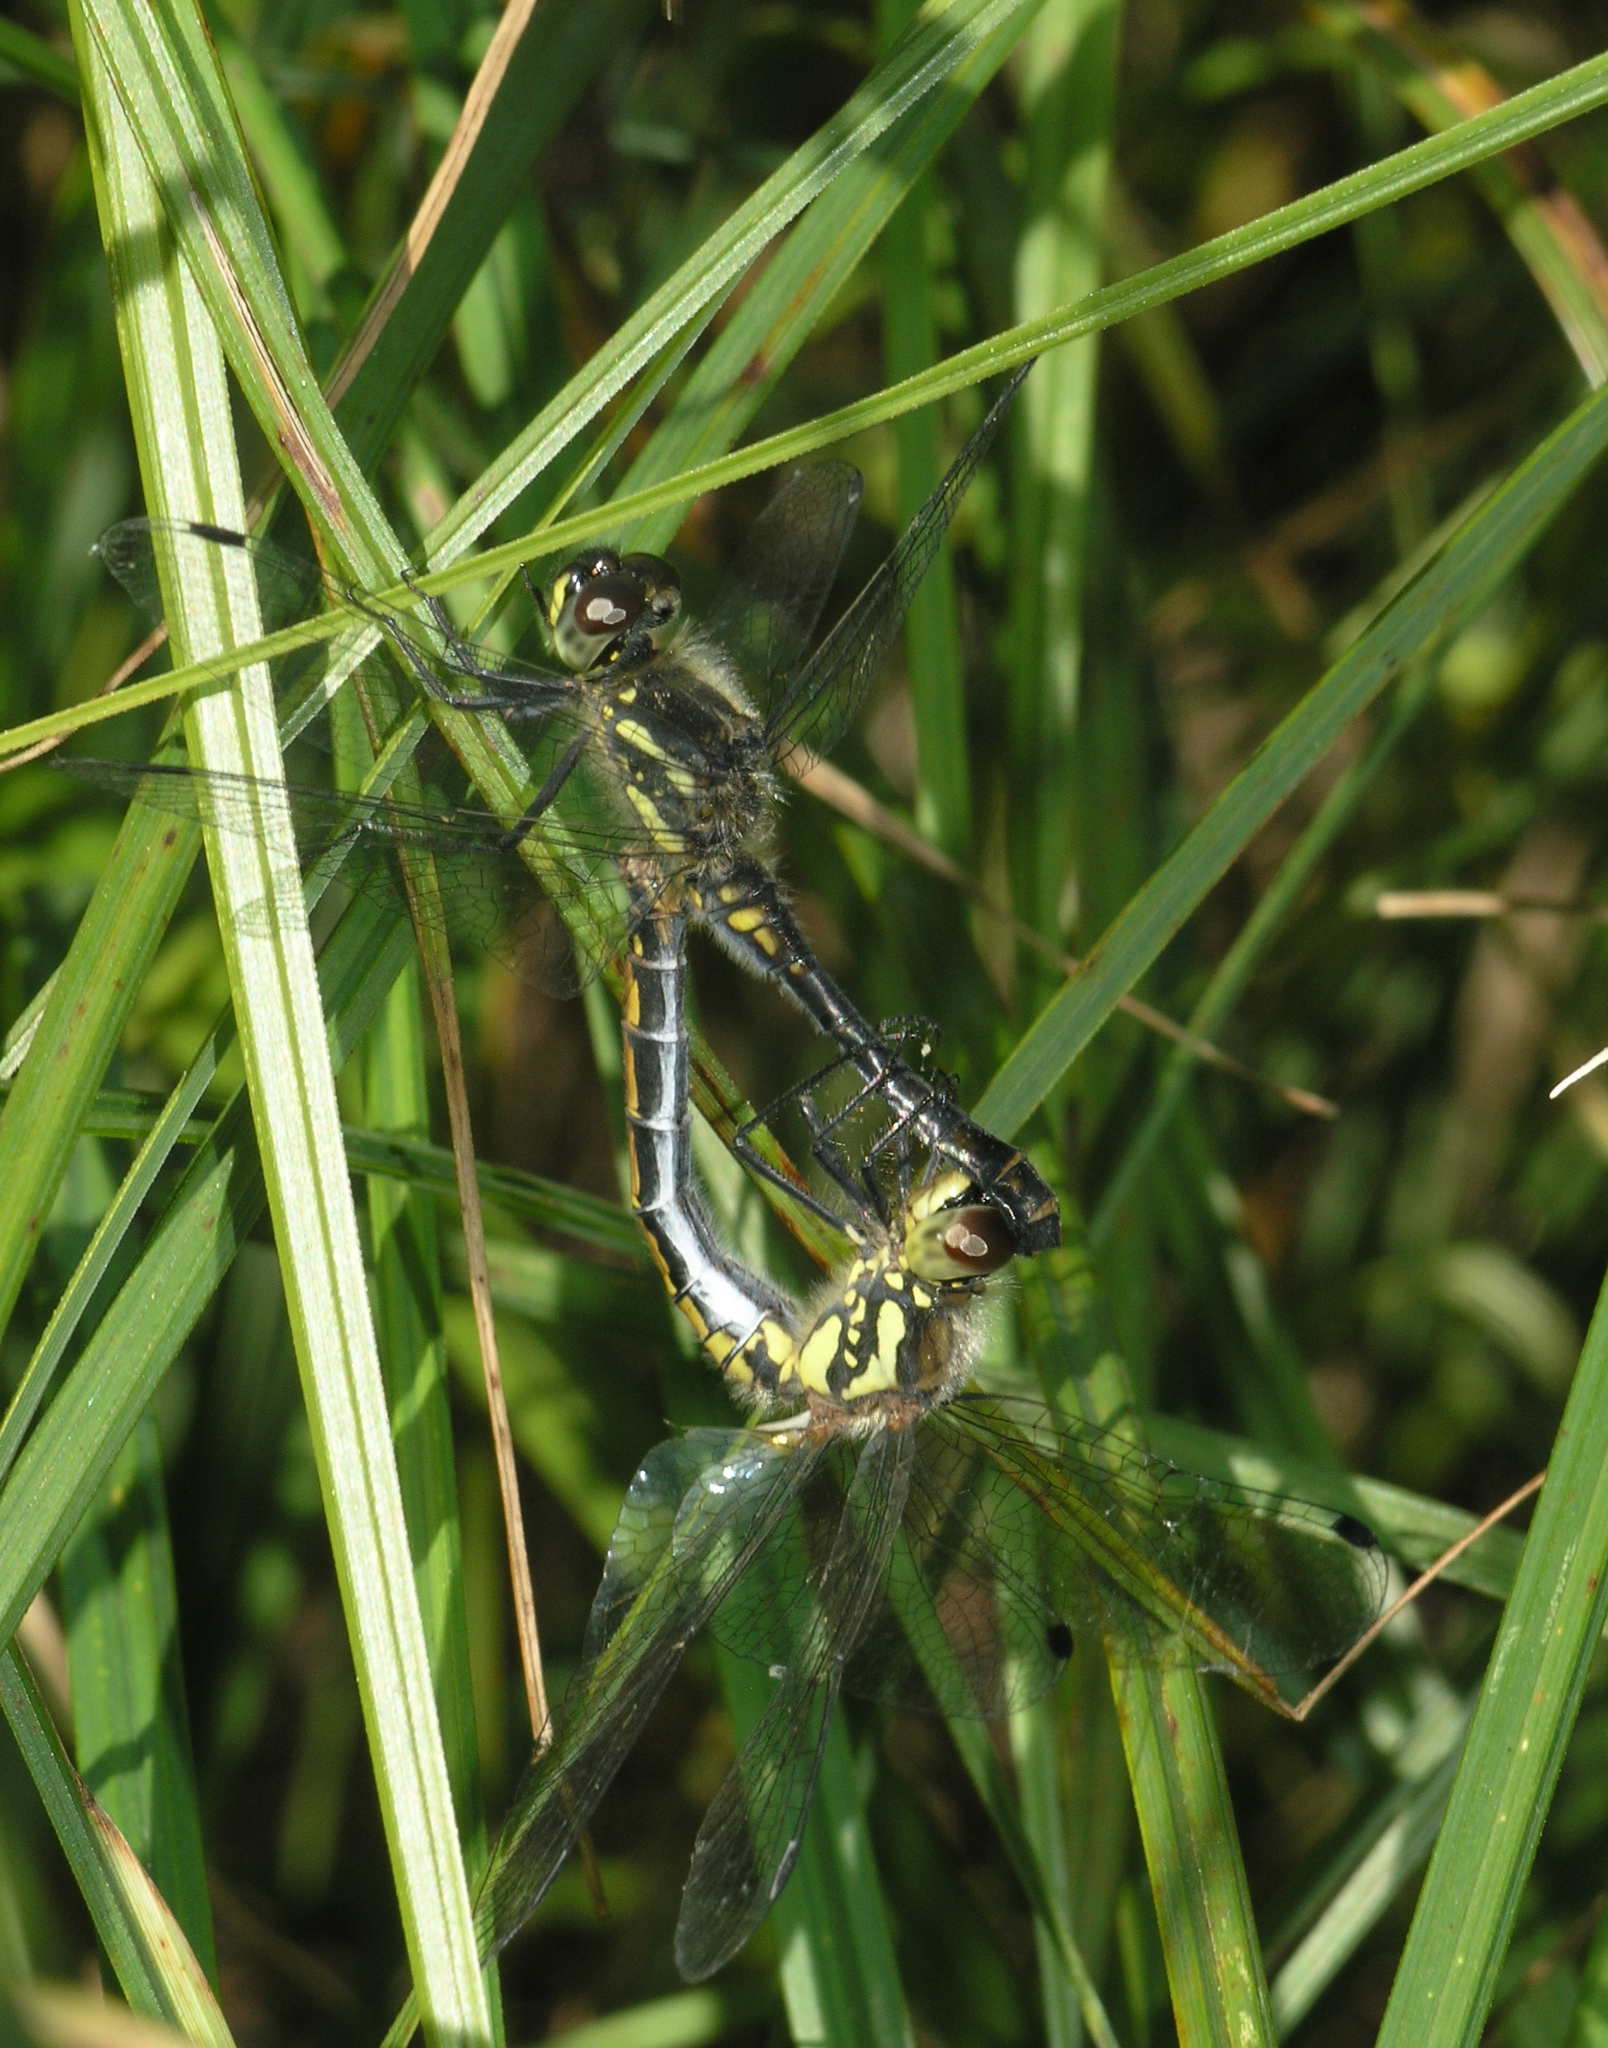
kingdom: Animalia
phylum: Arthropoda
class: Insecta
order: Odonata
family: Libellulidae
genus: Sympetrum
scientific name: Sympetrum danae
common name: Black darter
